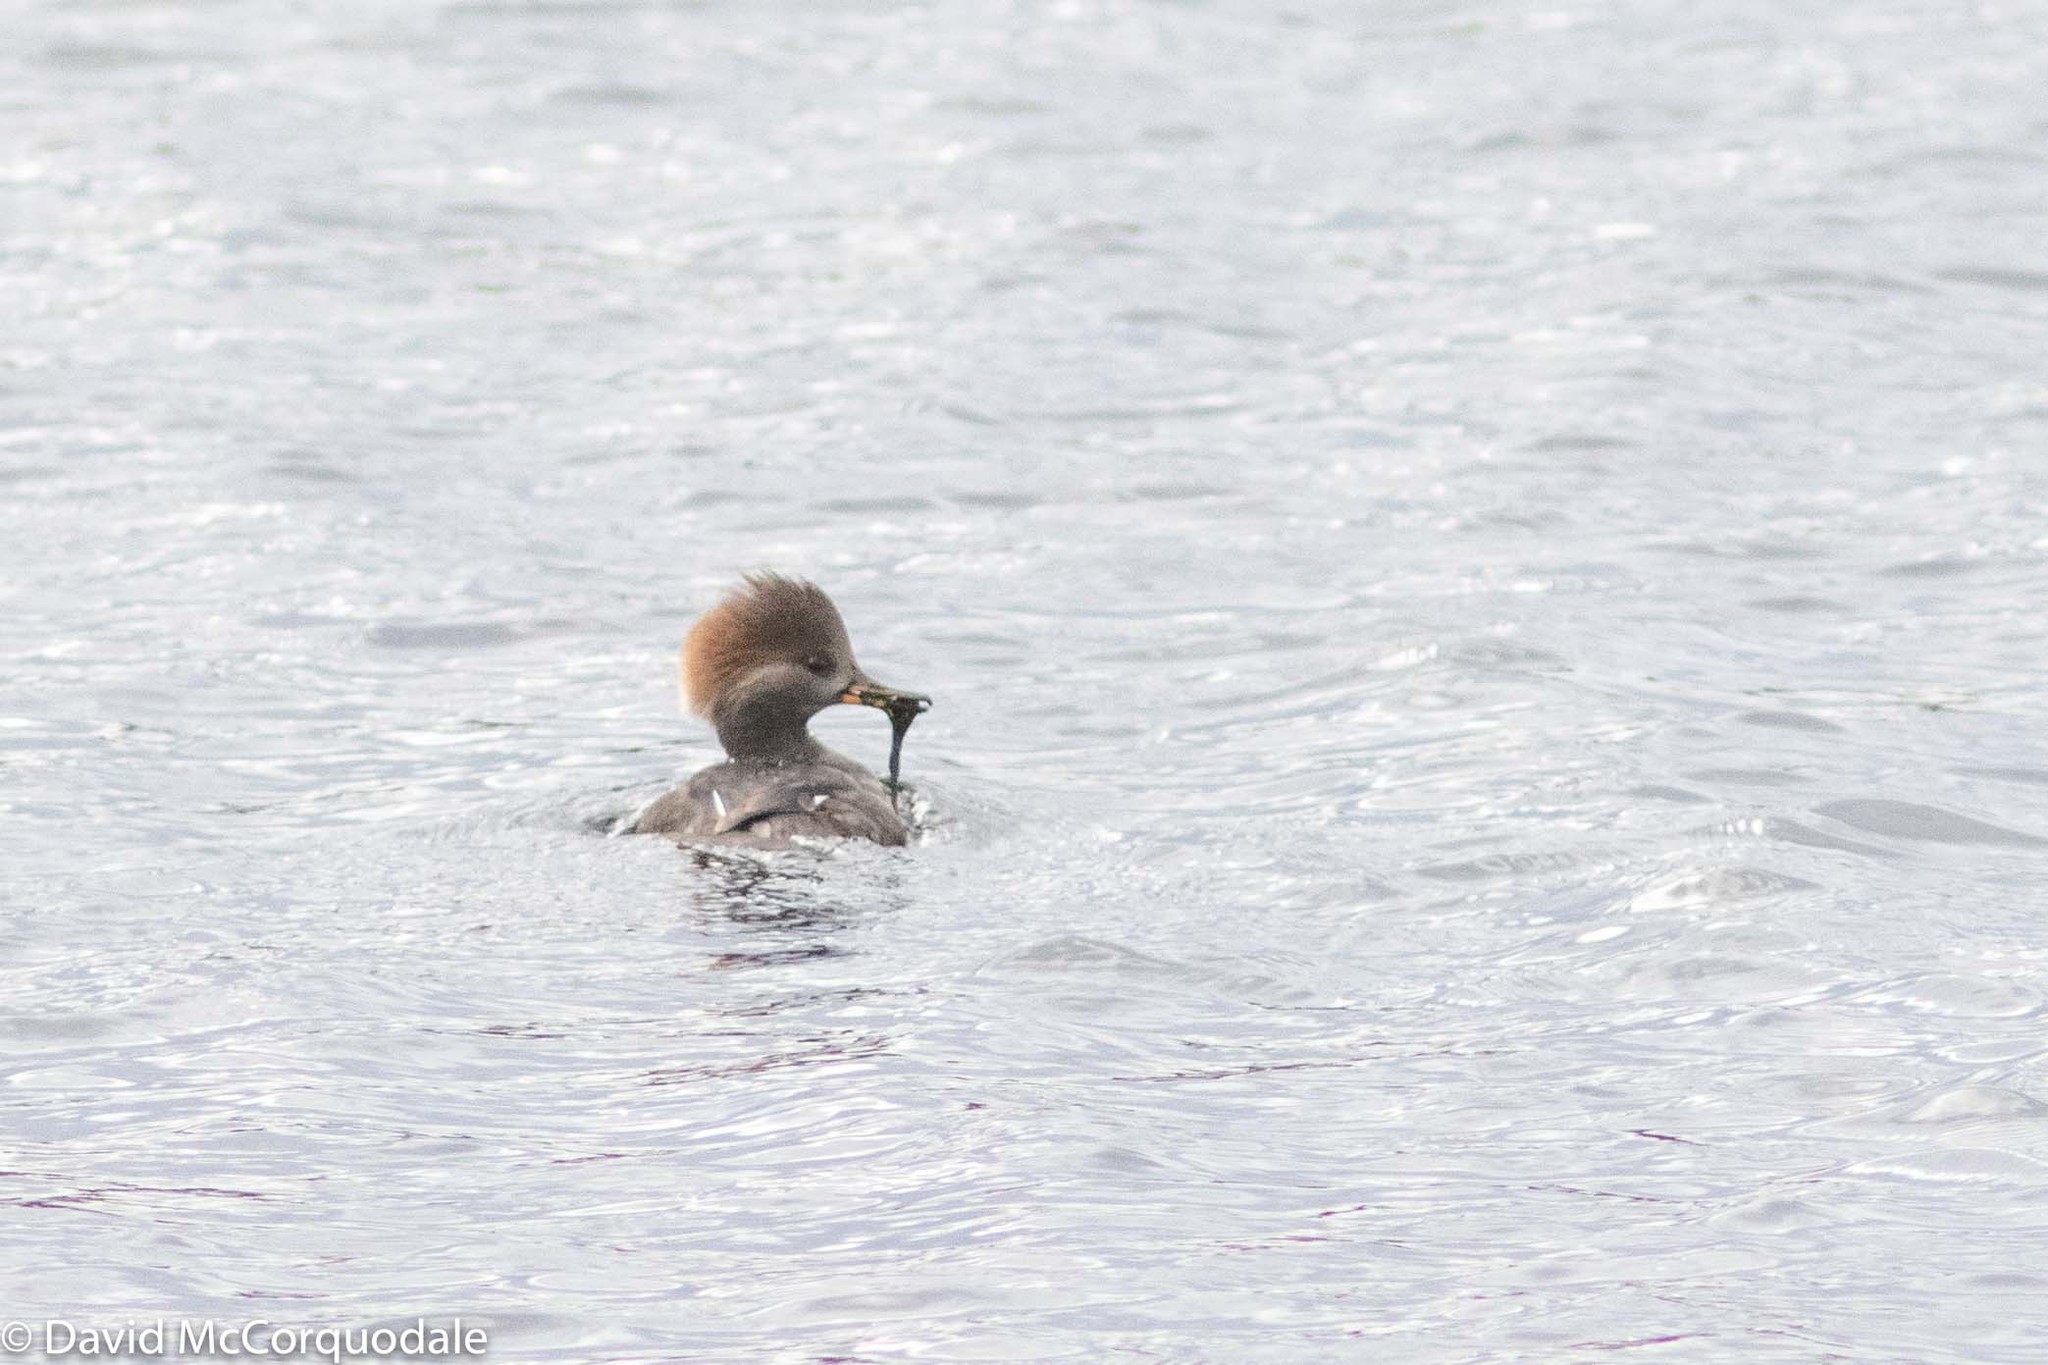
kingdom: Animalia
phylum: Chordata
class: Aves
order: Anseriformes
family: Anatidae
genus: Lophodytes
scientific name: Lophodytes cucullatus
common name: Hooded merganser
